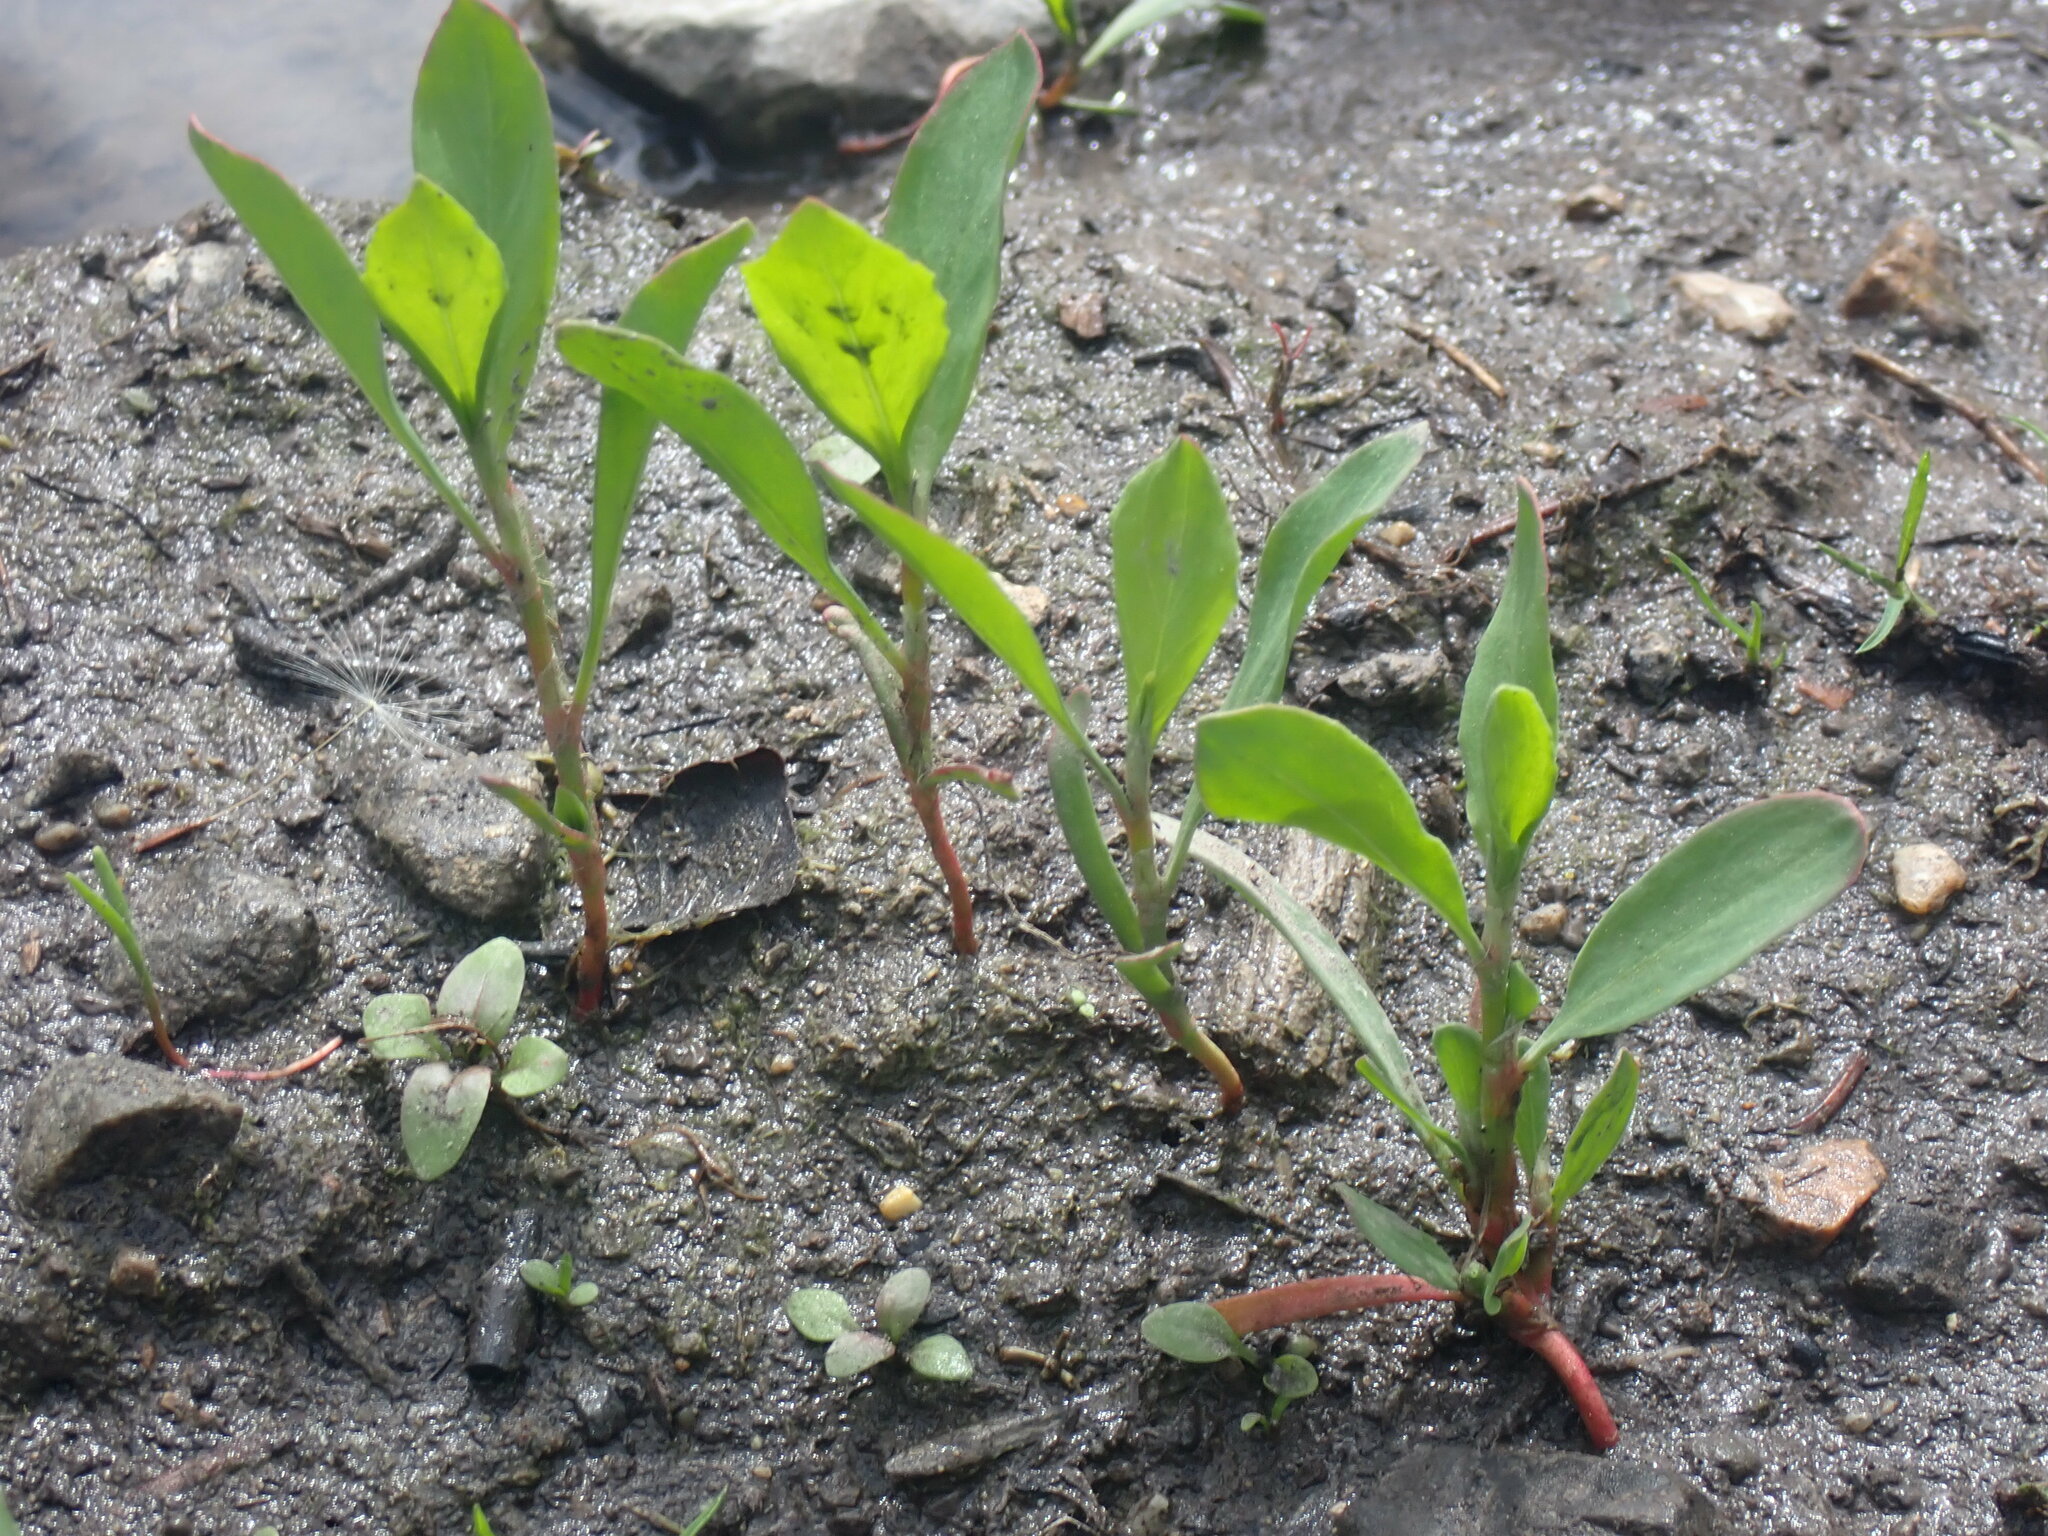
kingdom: Plantae
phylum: Tracheophyta
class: Magnoliopsida
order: Asterales
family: Menyanthaceae
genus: Menyanthes
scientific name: Menyanthes trifoliata
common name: Bogbean
